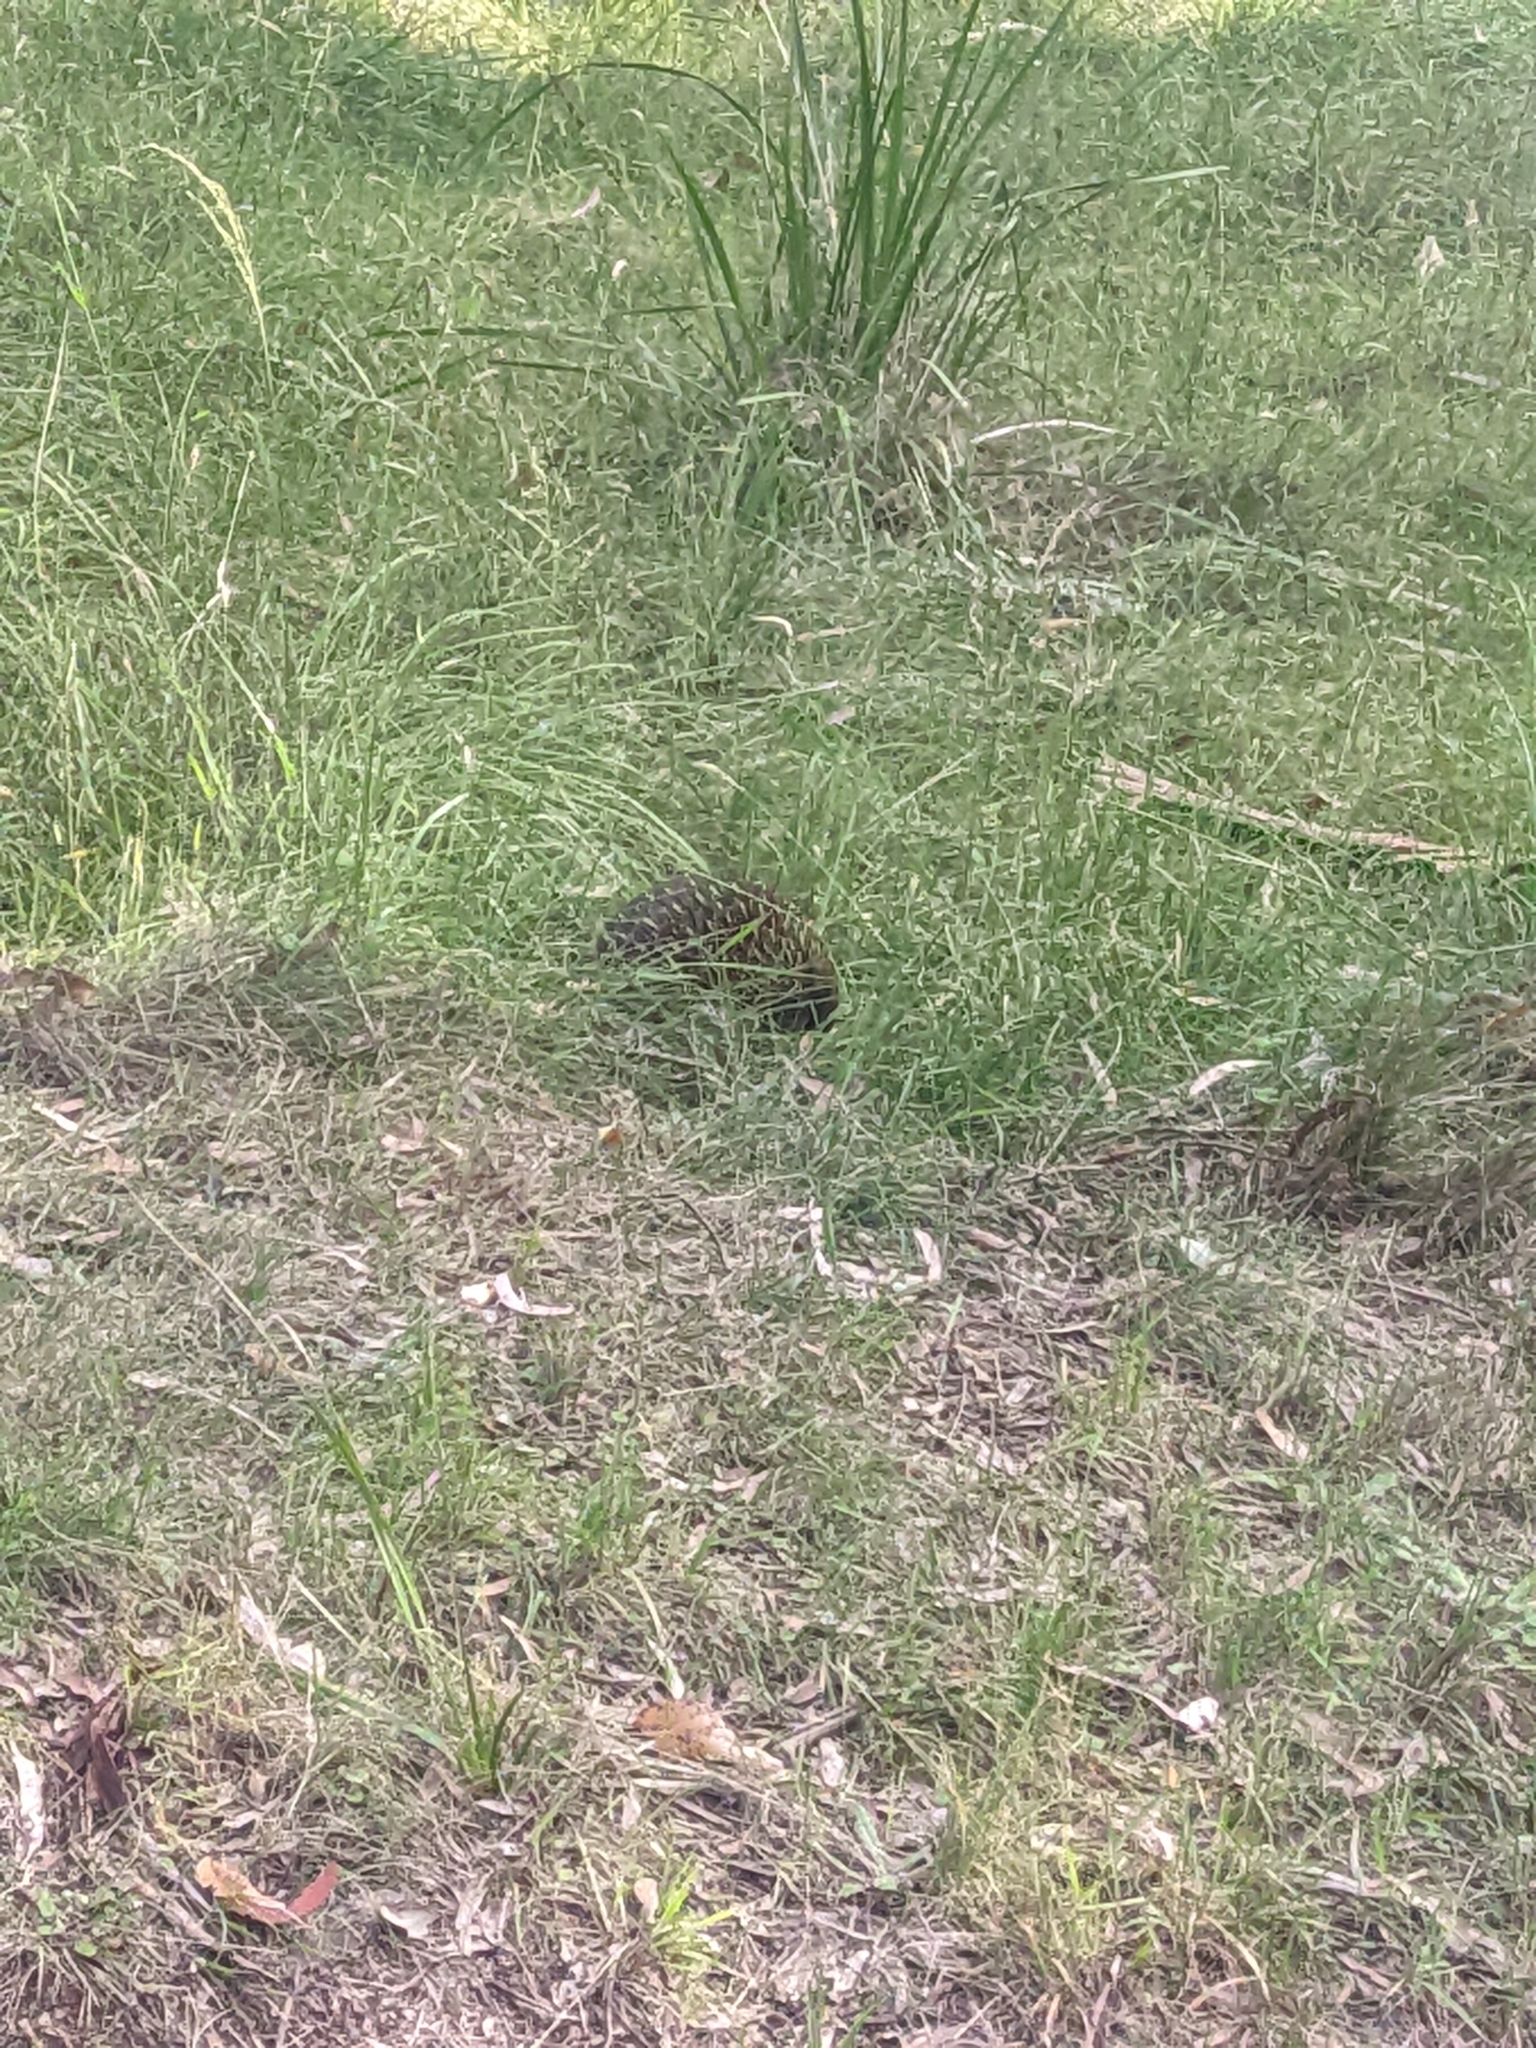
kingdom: Animalia
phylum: Chordata
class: Mammalia
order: Monotremata
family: Tachyglossidae
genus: Tachyglossus
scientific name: Tachyglossus aculeatus
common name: Short-beaked echidna
